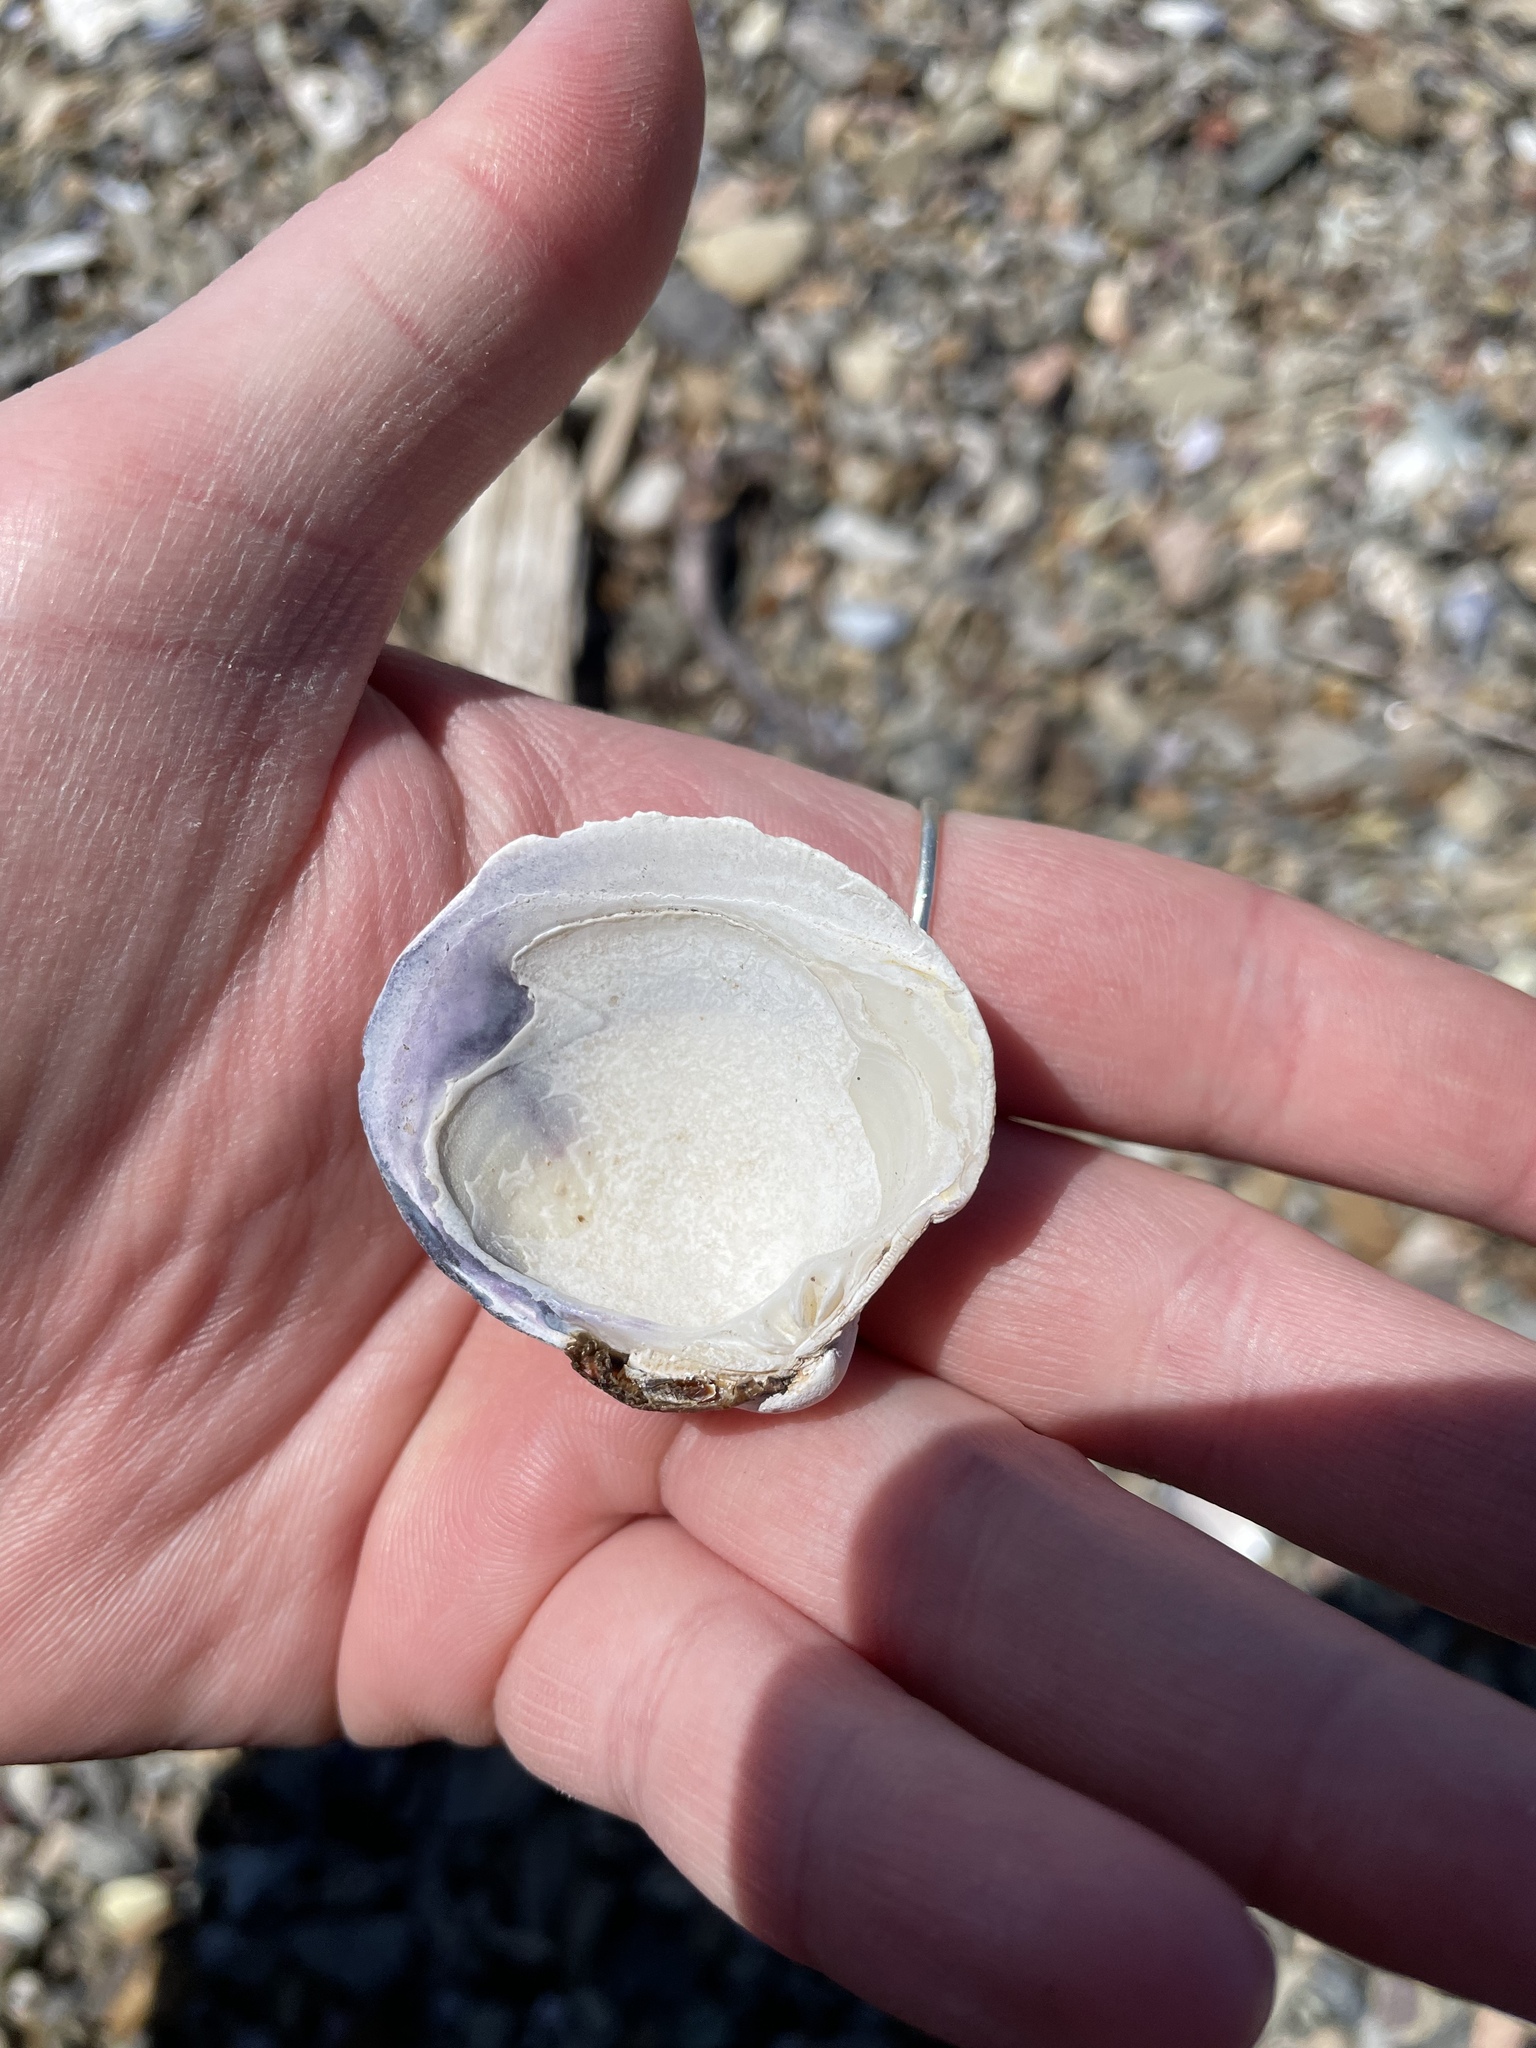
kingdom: Animalia
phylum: Mollusca
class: Bivalvia
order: Venerida
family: Veneridae
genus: Mercenaria
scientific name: Mercenaria mercenaria
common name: American hard-shelled clam
